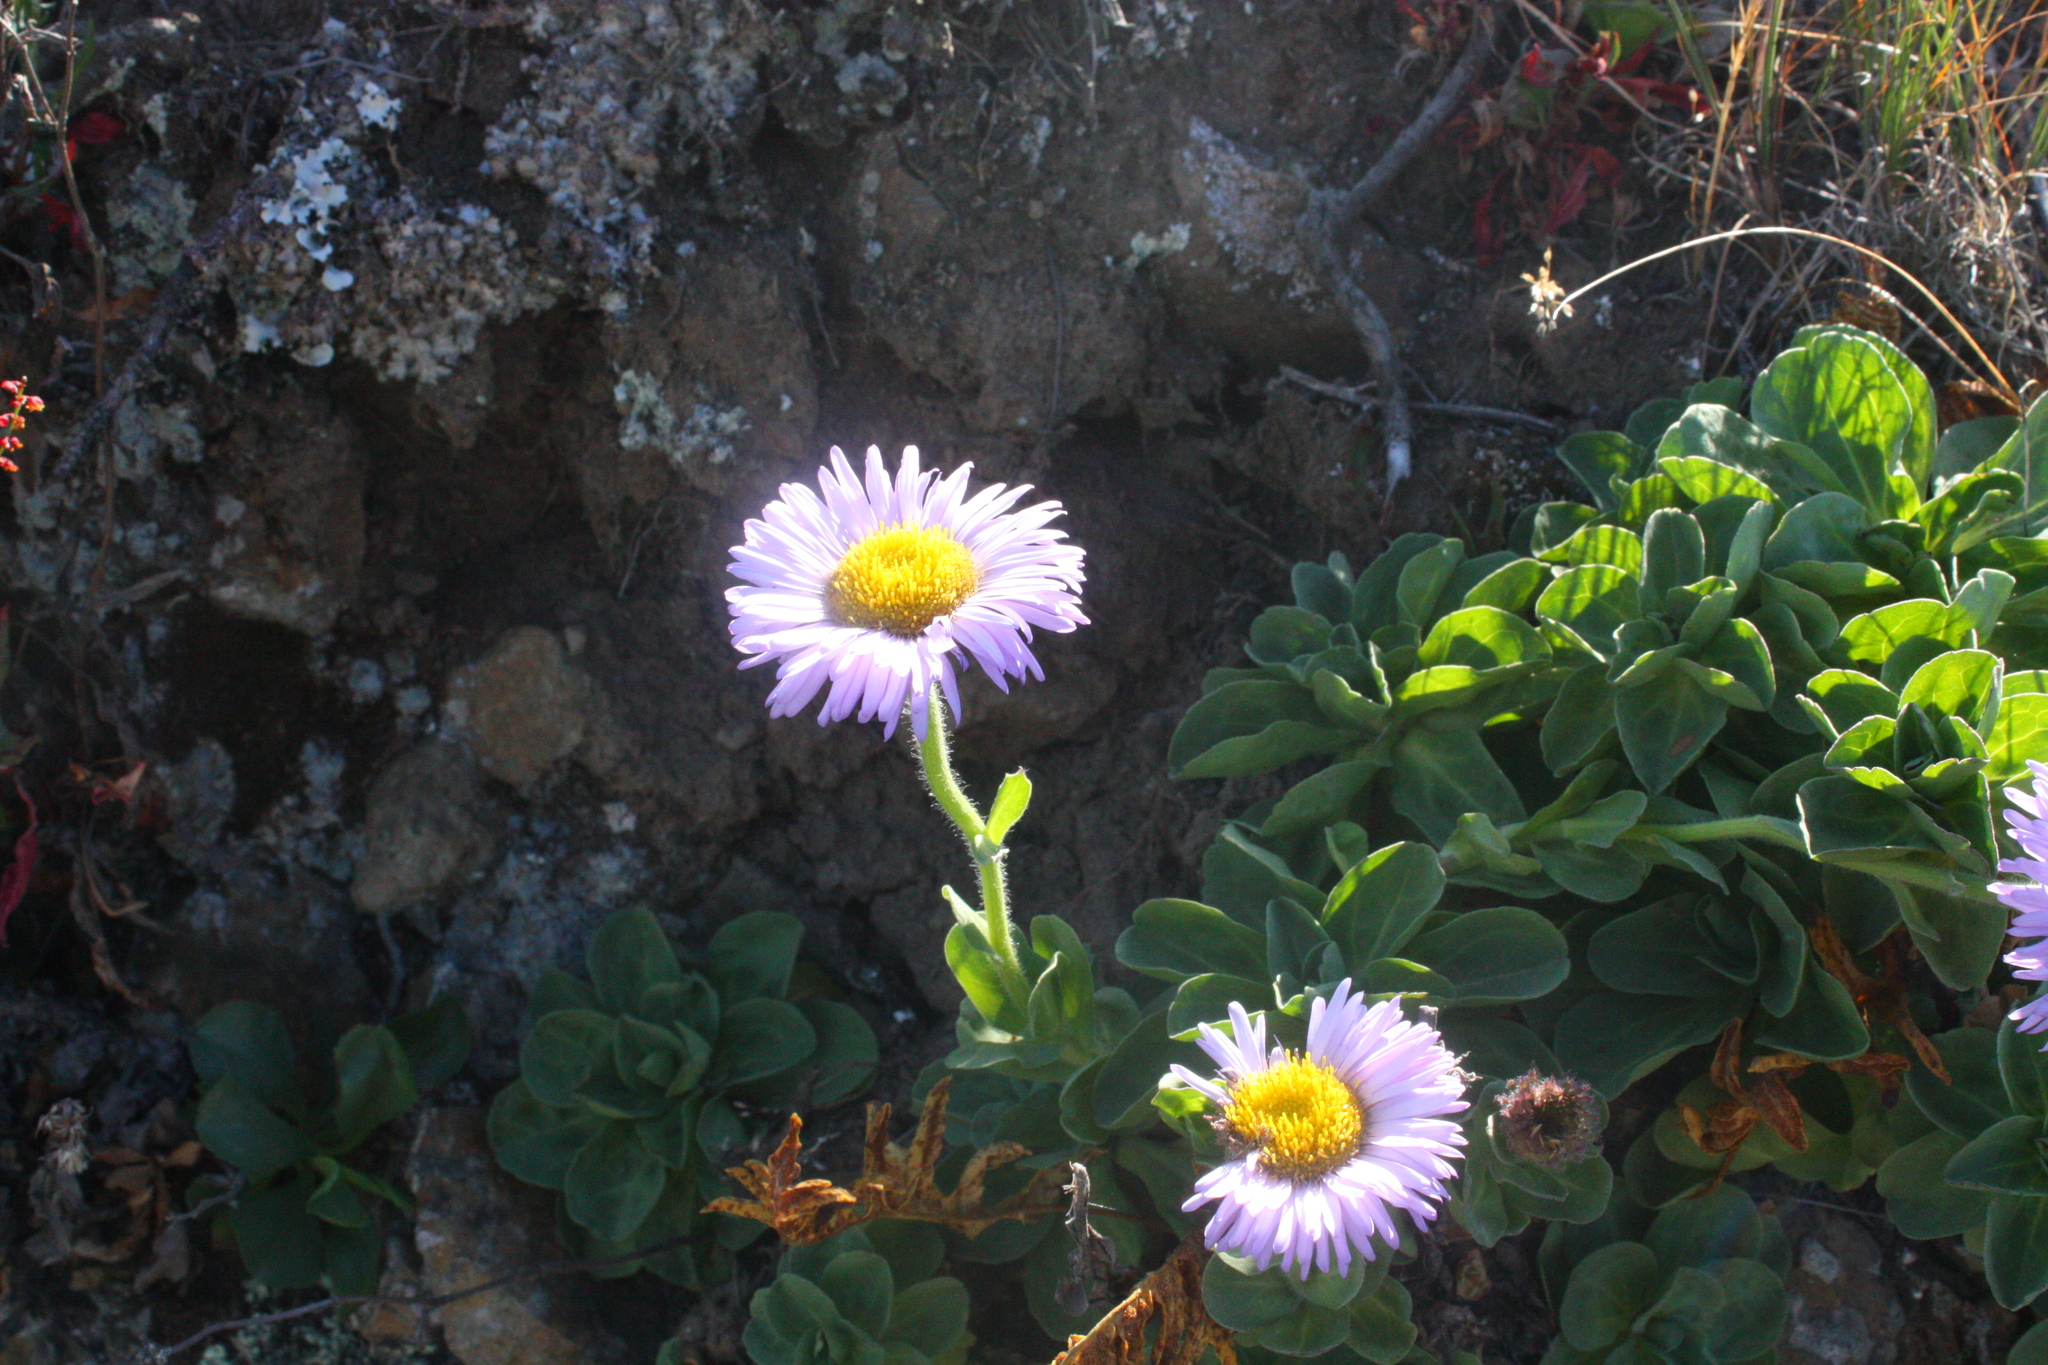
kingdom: Plantae
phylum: Tracheophyta
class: Magnoliopsida
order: Asterales
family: Asteraceae
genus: Erigeron
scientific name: Erigeron glaucus
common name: Seaside daisy
